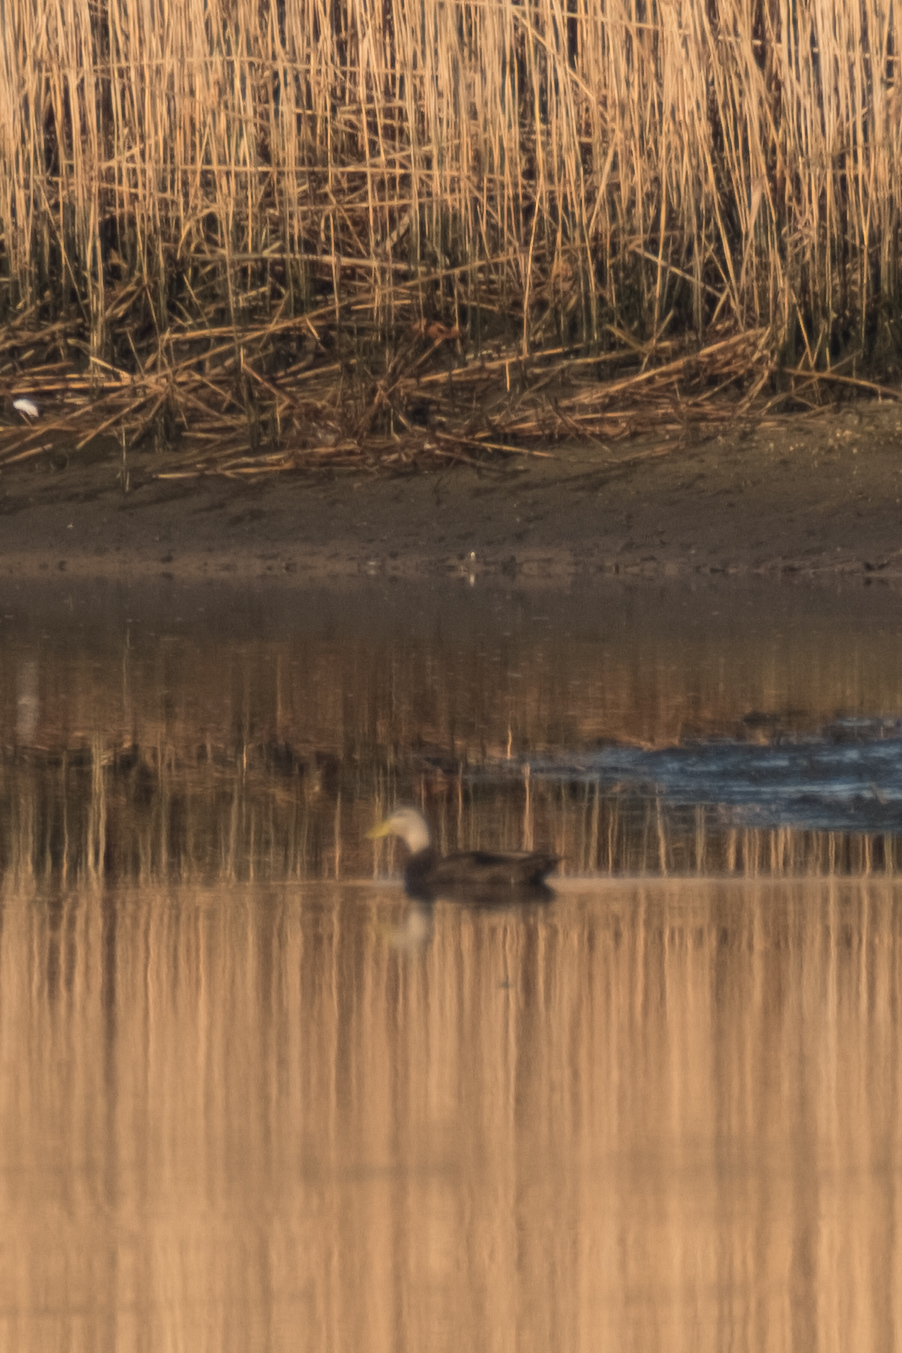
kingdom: Animalia
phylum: Chordata
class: Aves
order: Anseriformes
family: Anatidae
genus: Anas
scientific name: Anas rubripes
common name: American black duck
